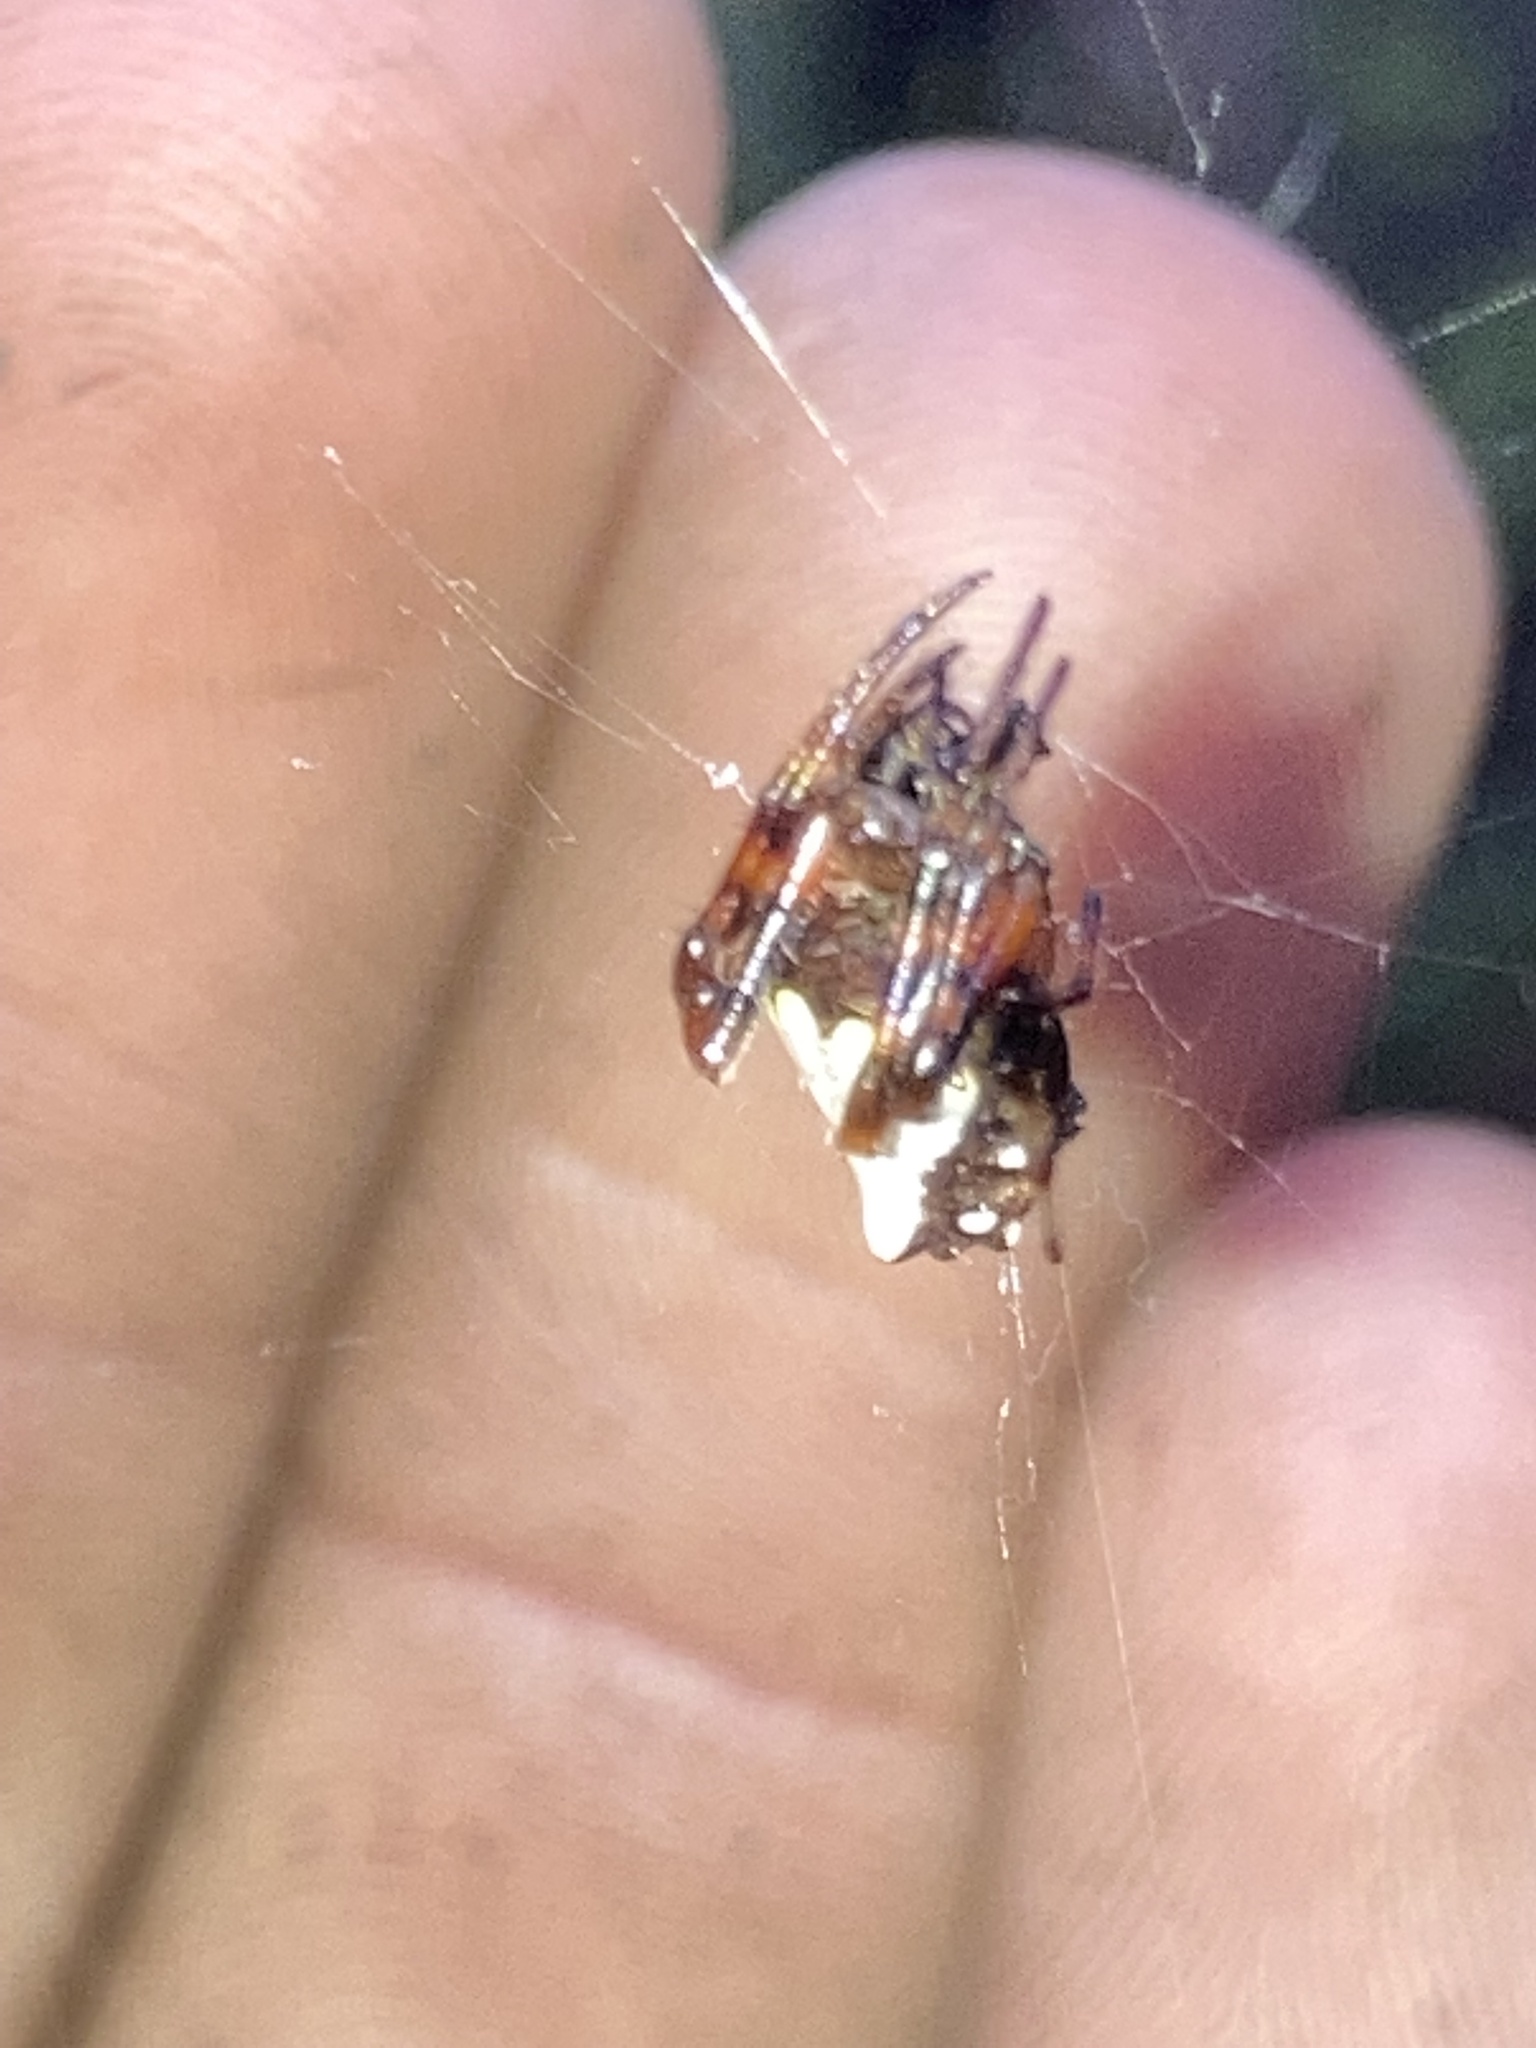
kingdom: Animalia
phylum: Arthropoda
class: Arachnida
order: Araneae
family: Araneidae
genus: Verrucosa
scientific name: Verrucosa arenata
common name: Orb weavers
